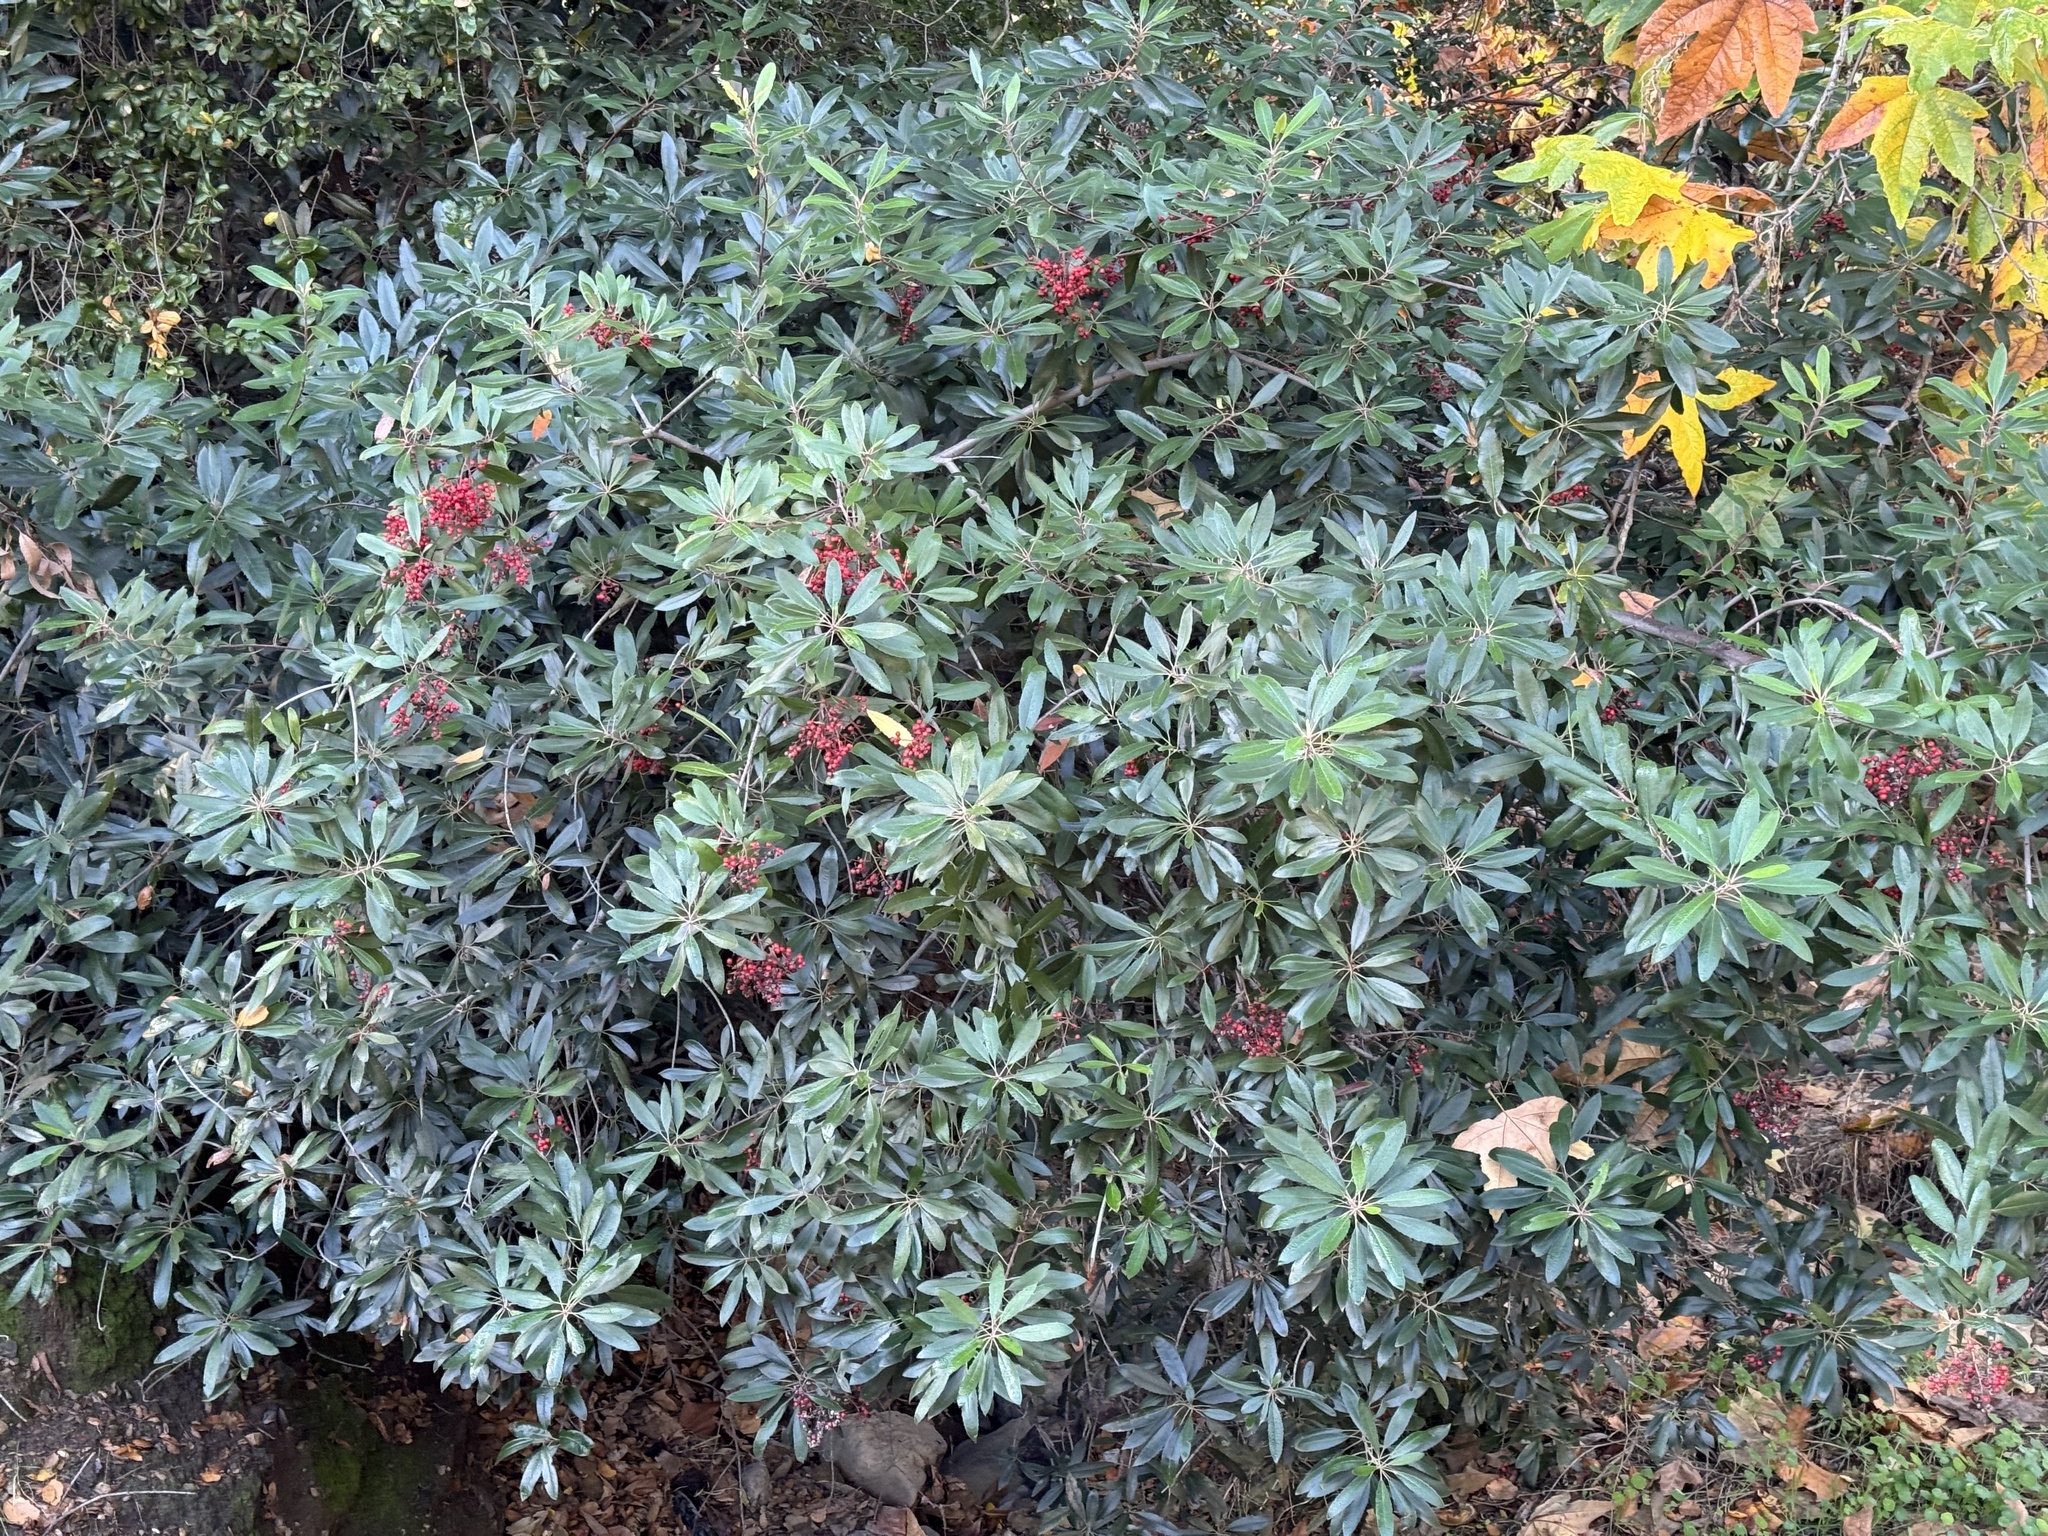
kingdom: Plantae
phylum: Tracheophyta
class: Magnoliopsida
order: Rosales
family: Rosaceae
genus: Heteromeles
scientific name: Heteromeles arbutifolia
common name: California-holly
